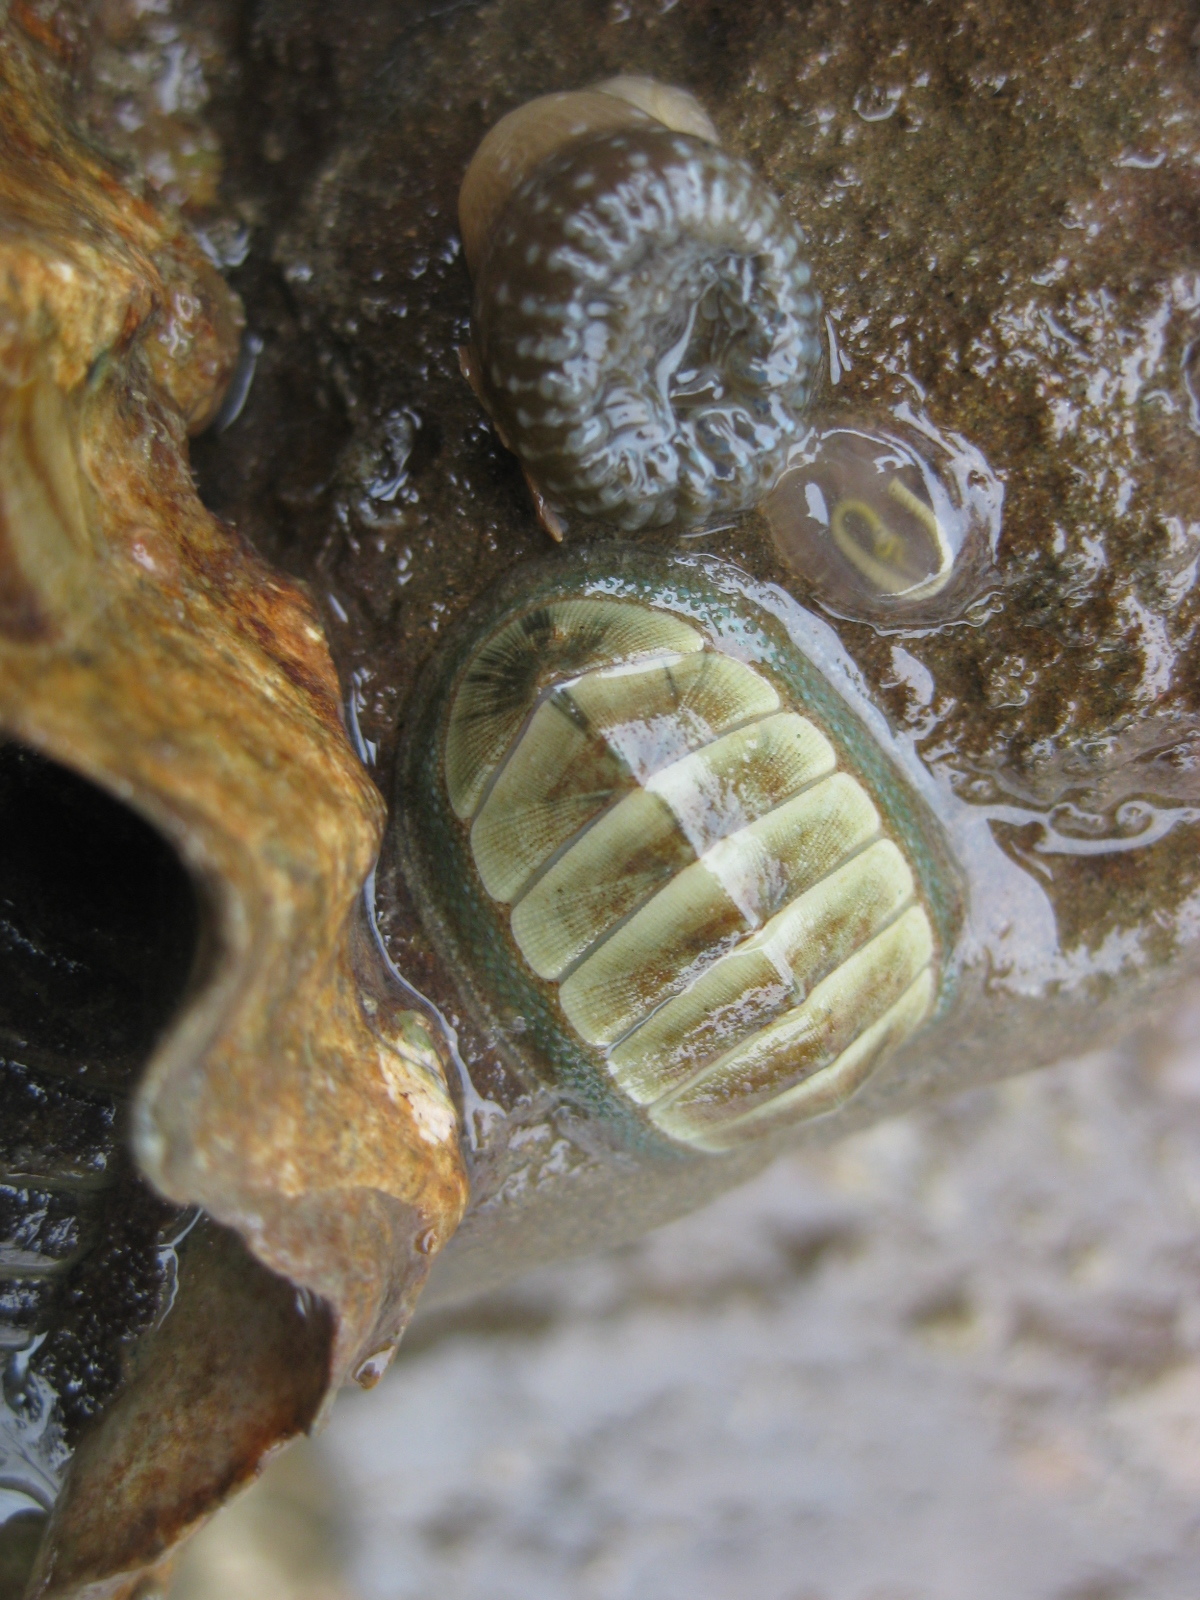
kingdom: Animalia
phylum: Mollusca
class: Polyplacophora
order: Chitonida
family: Chitonidae
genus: Chiton
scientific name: Chiton glaucus
